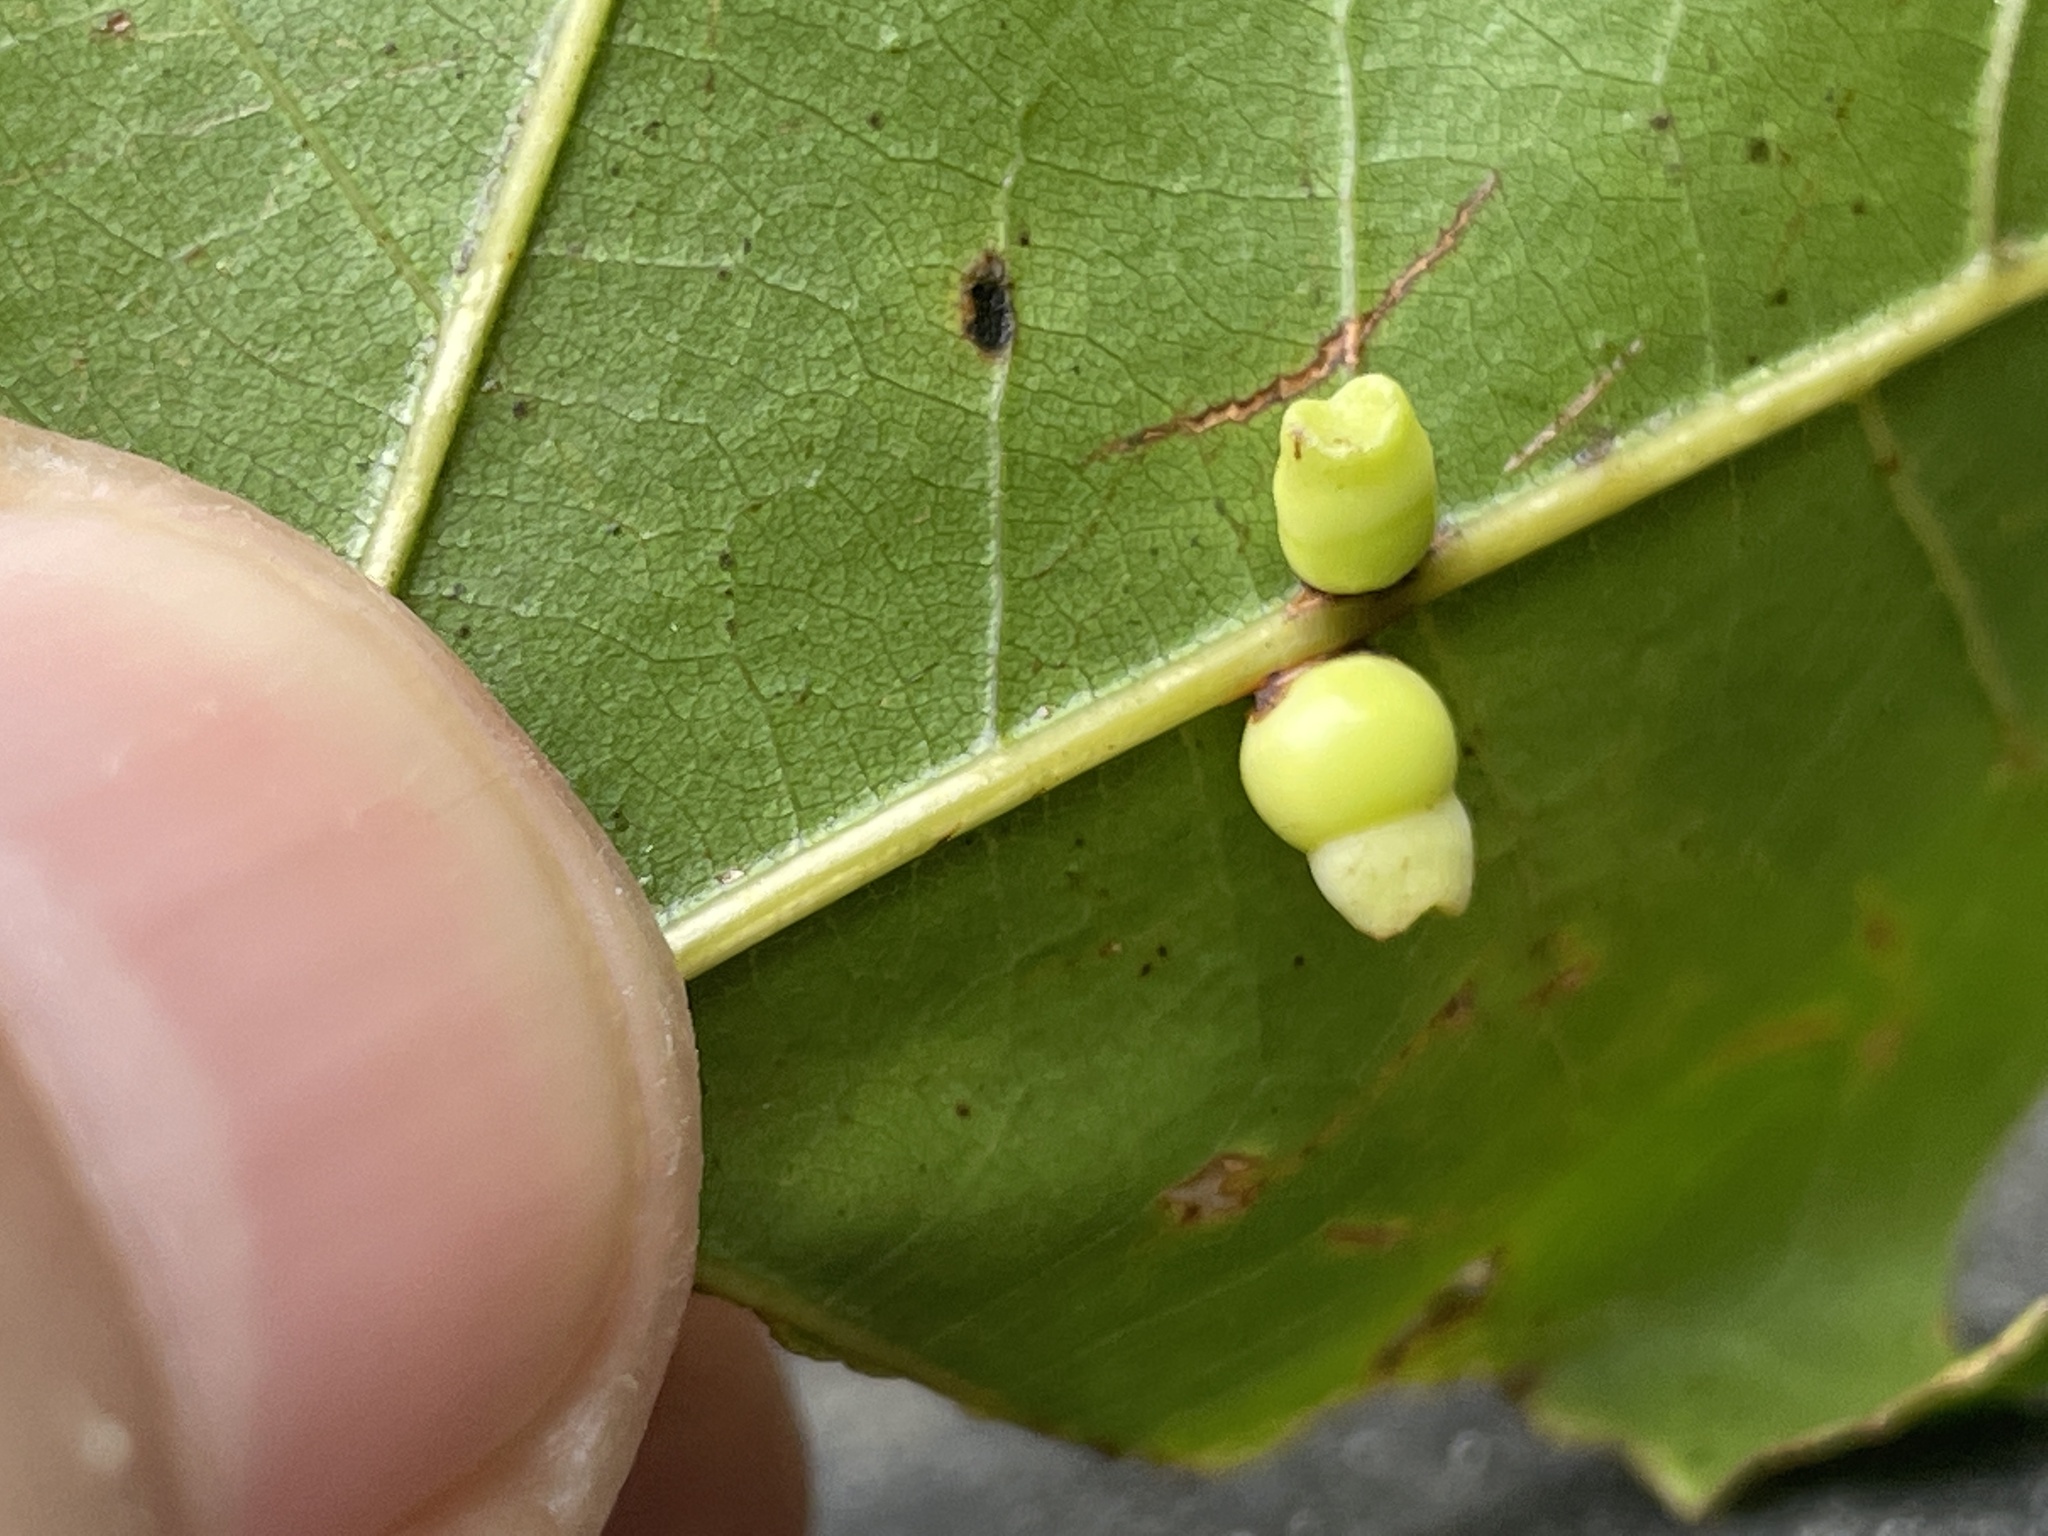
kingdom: Animalia
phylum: Arthropoda
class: Insecta
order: Hymenoptera
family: Cynipidae
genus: Kokkocynips
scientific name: Kokkocynips rileyi
